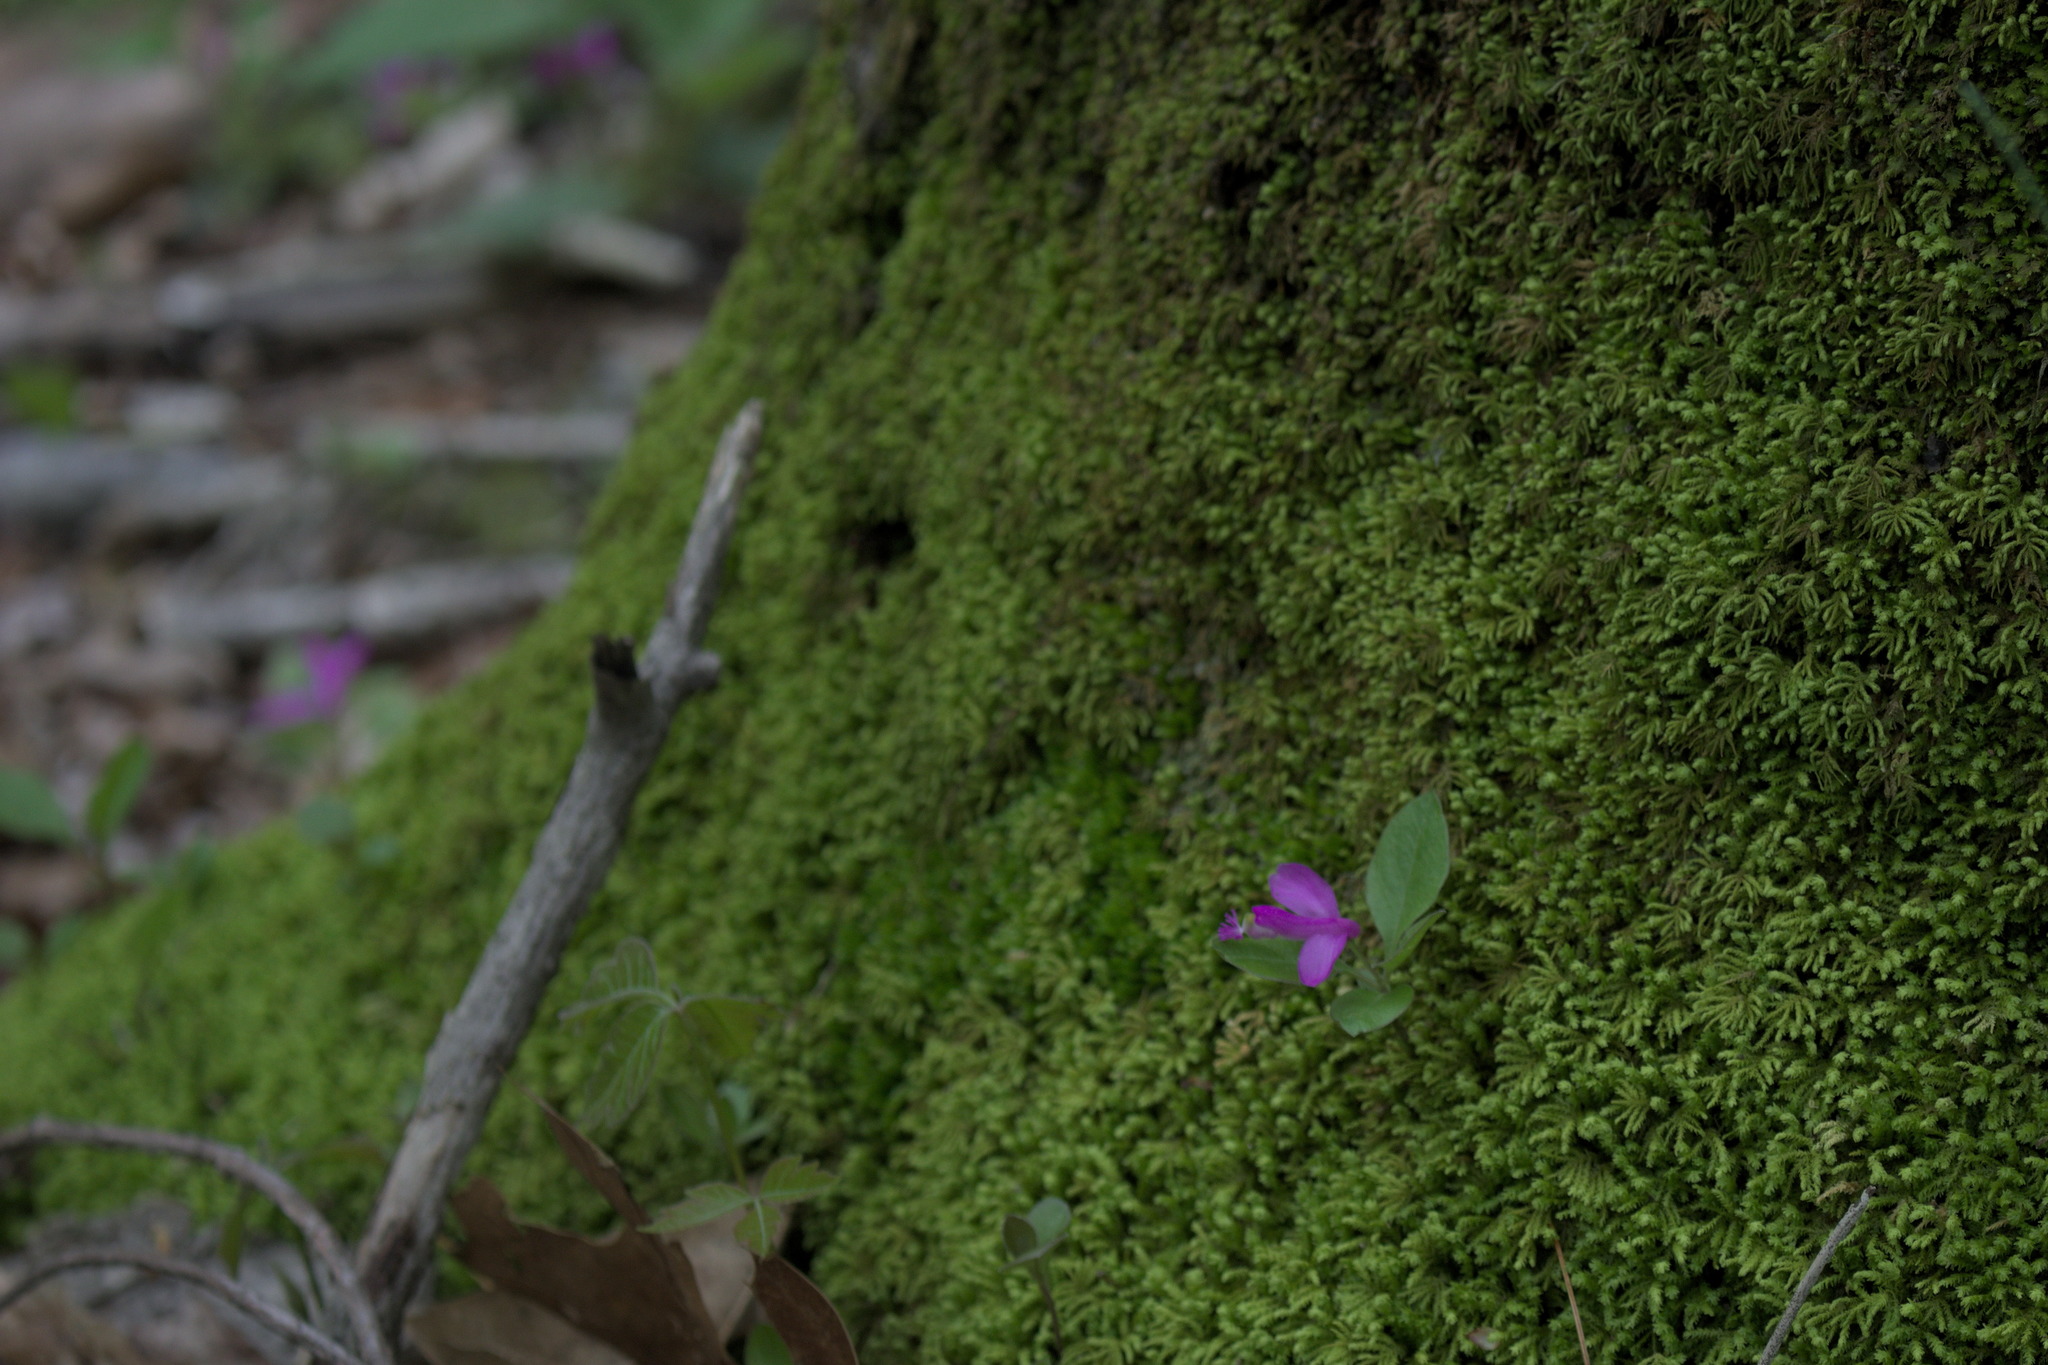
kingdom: Plantae
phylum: Tracheophyta
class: Magnoliopsida
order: Fabales
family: Polygalaceae
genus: Polygaloides
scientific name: Polygaloides paucifolia
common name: Bird-on-the-wing
